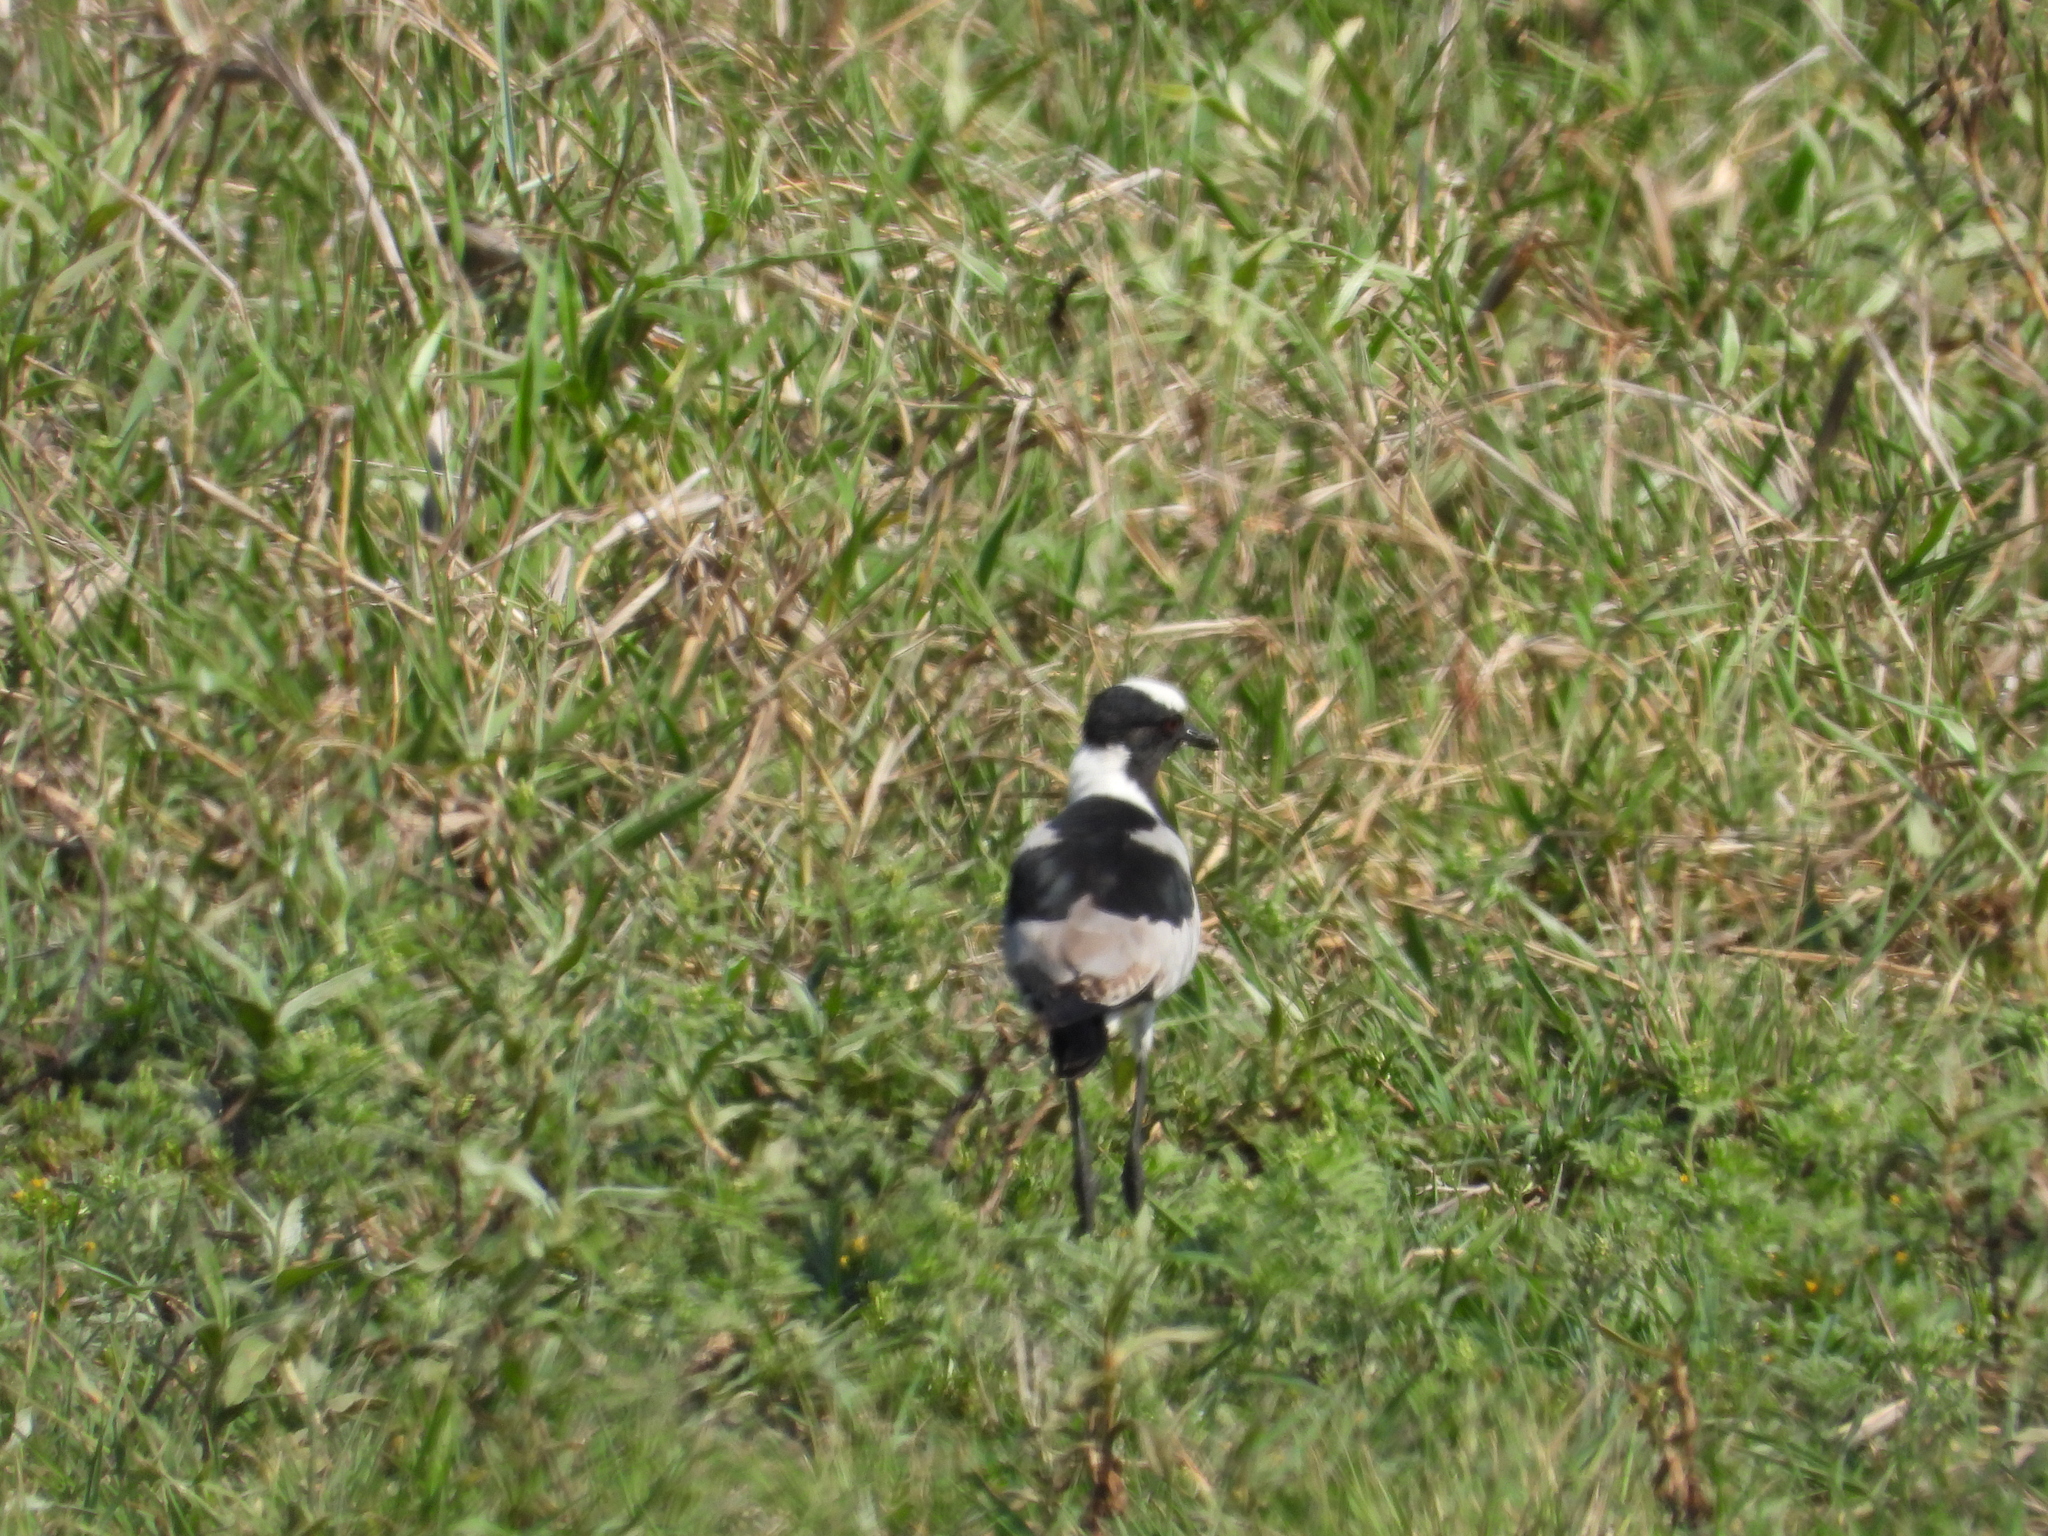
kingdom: Animalia
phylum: Chordata
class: Aves
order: Charadriiformes
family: Charadriidae
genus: Vanellus
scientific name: Vanellus armatus
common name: Blacksmith lapwing
